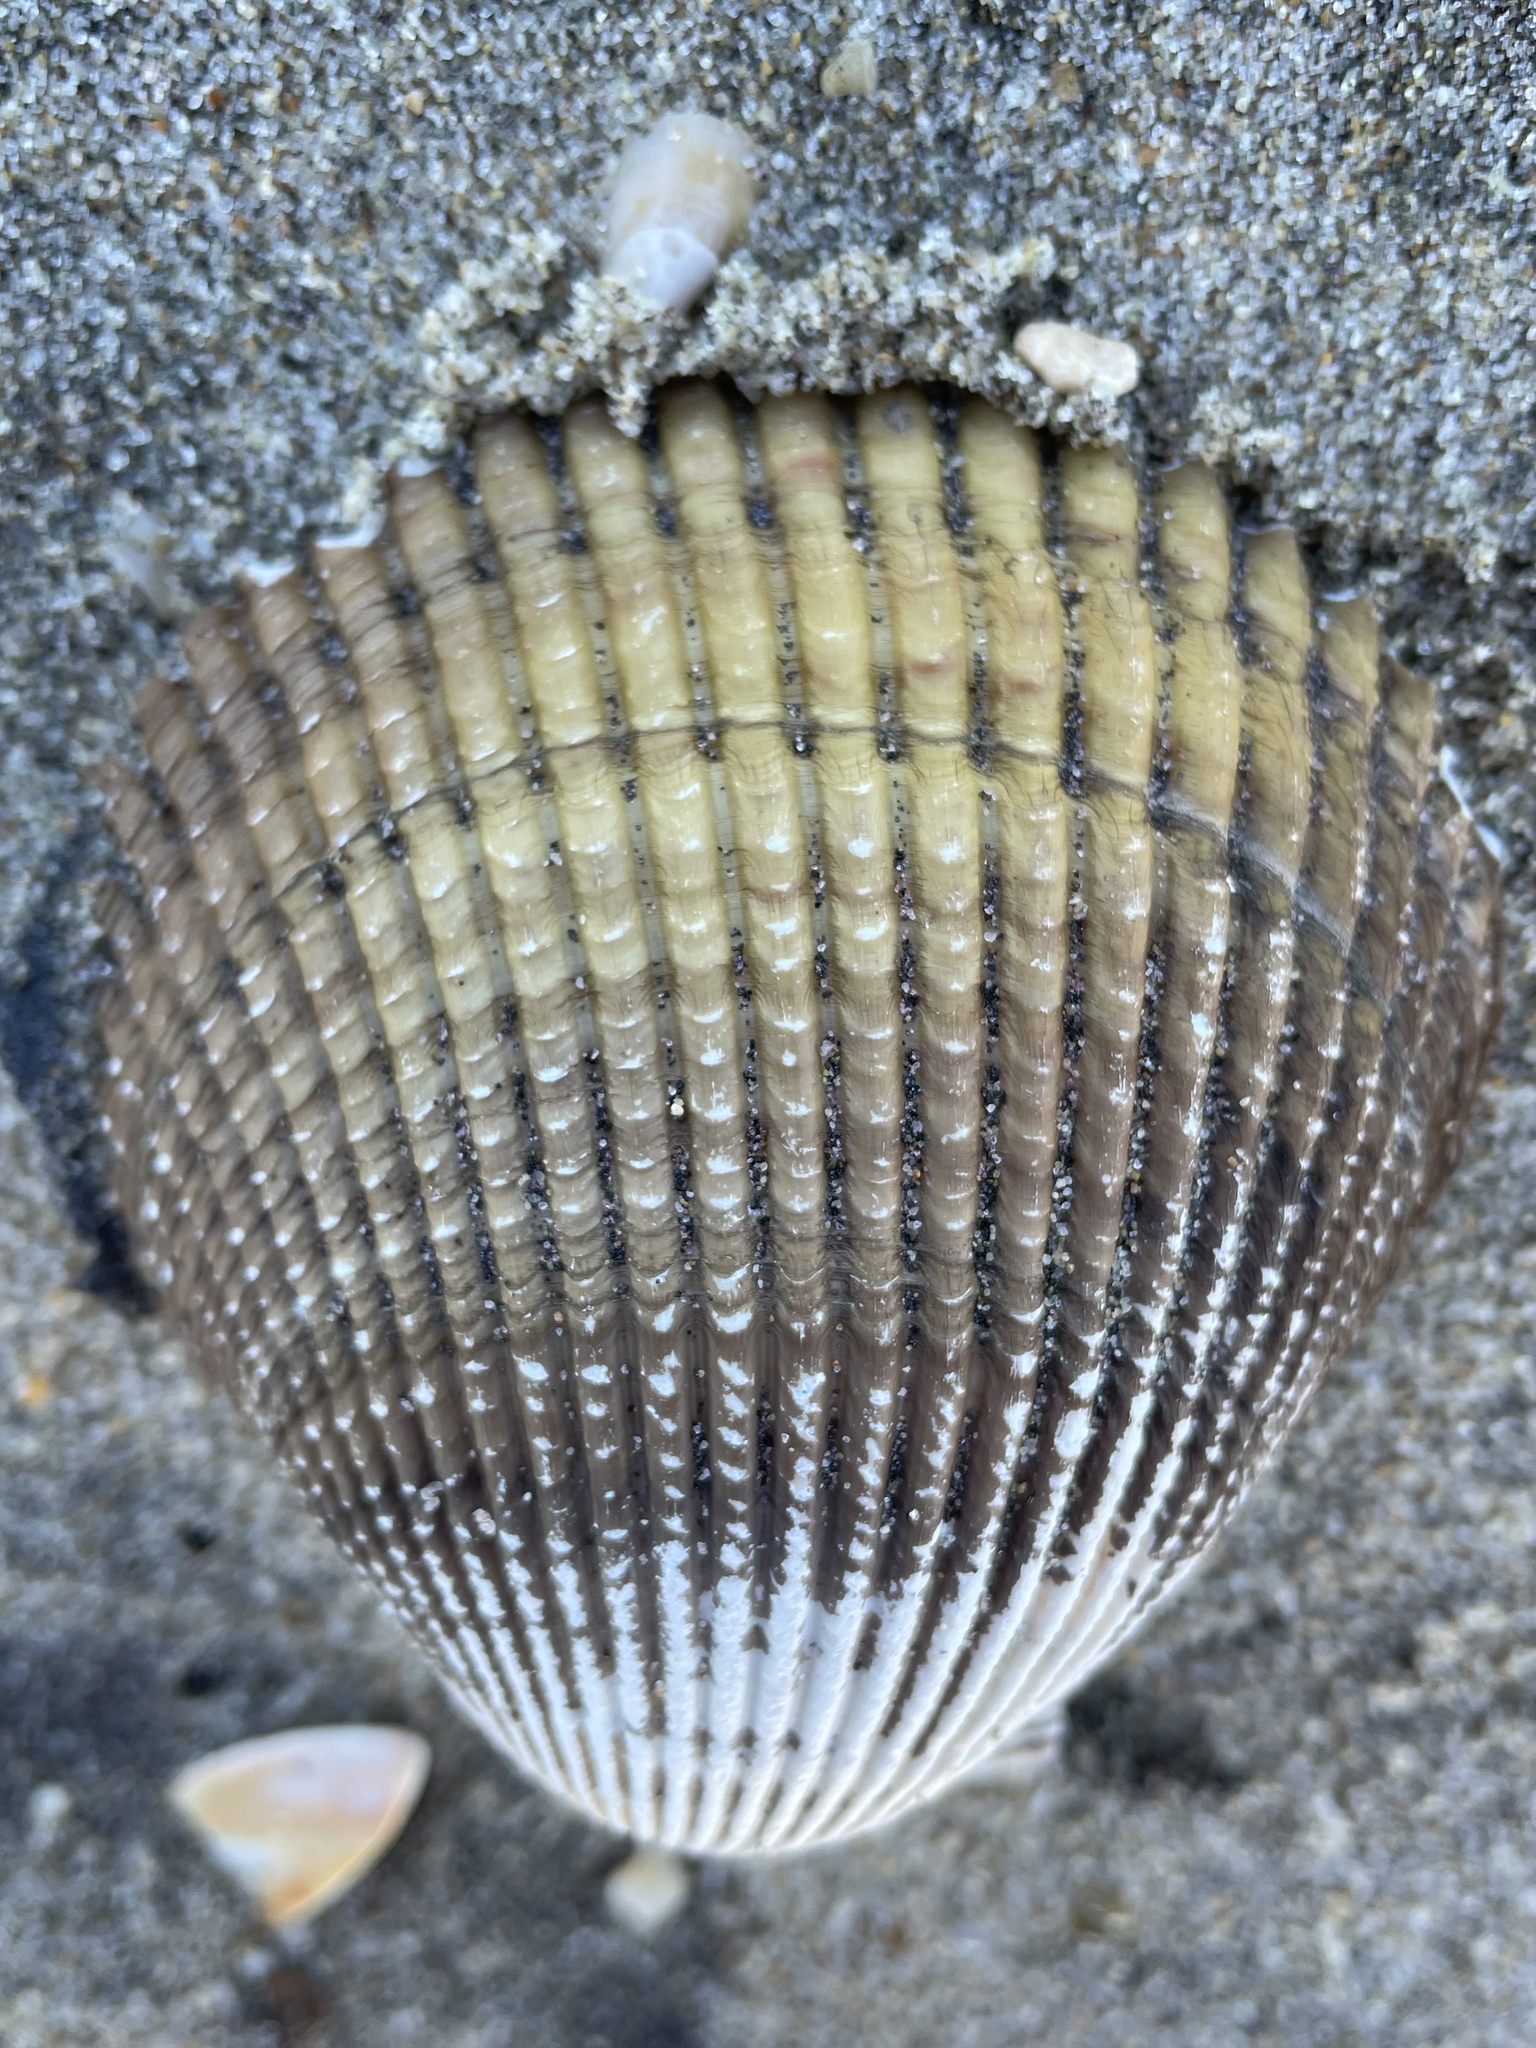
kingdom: Animalia
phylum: Mollusca
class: Bivalvia
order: Cardiida
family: Cardiidae
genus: Clinocardium
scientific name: Clinocardium nuttallii
